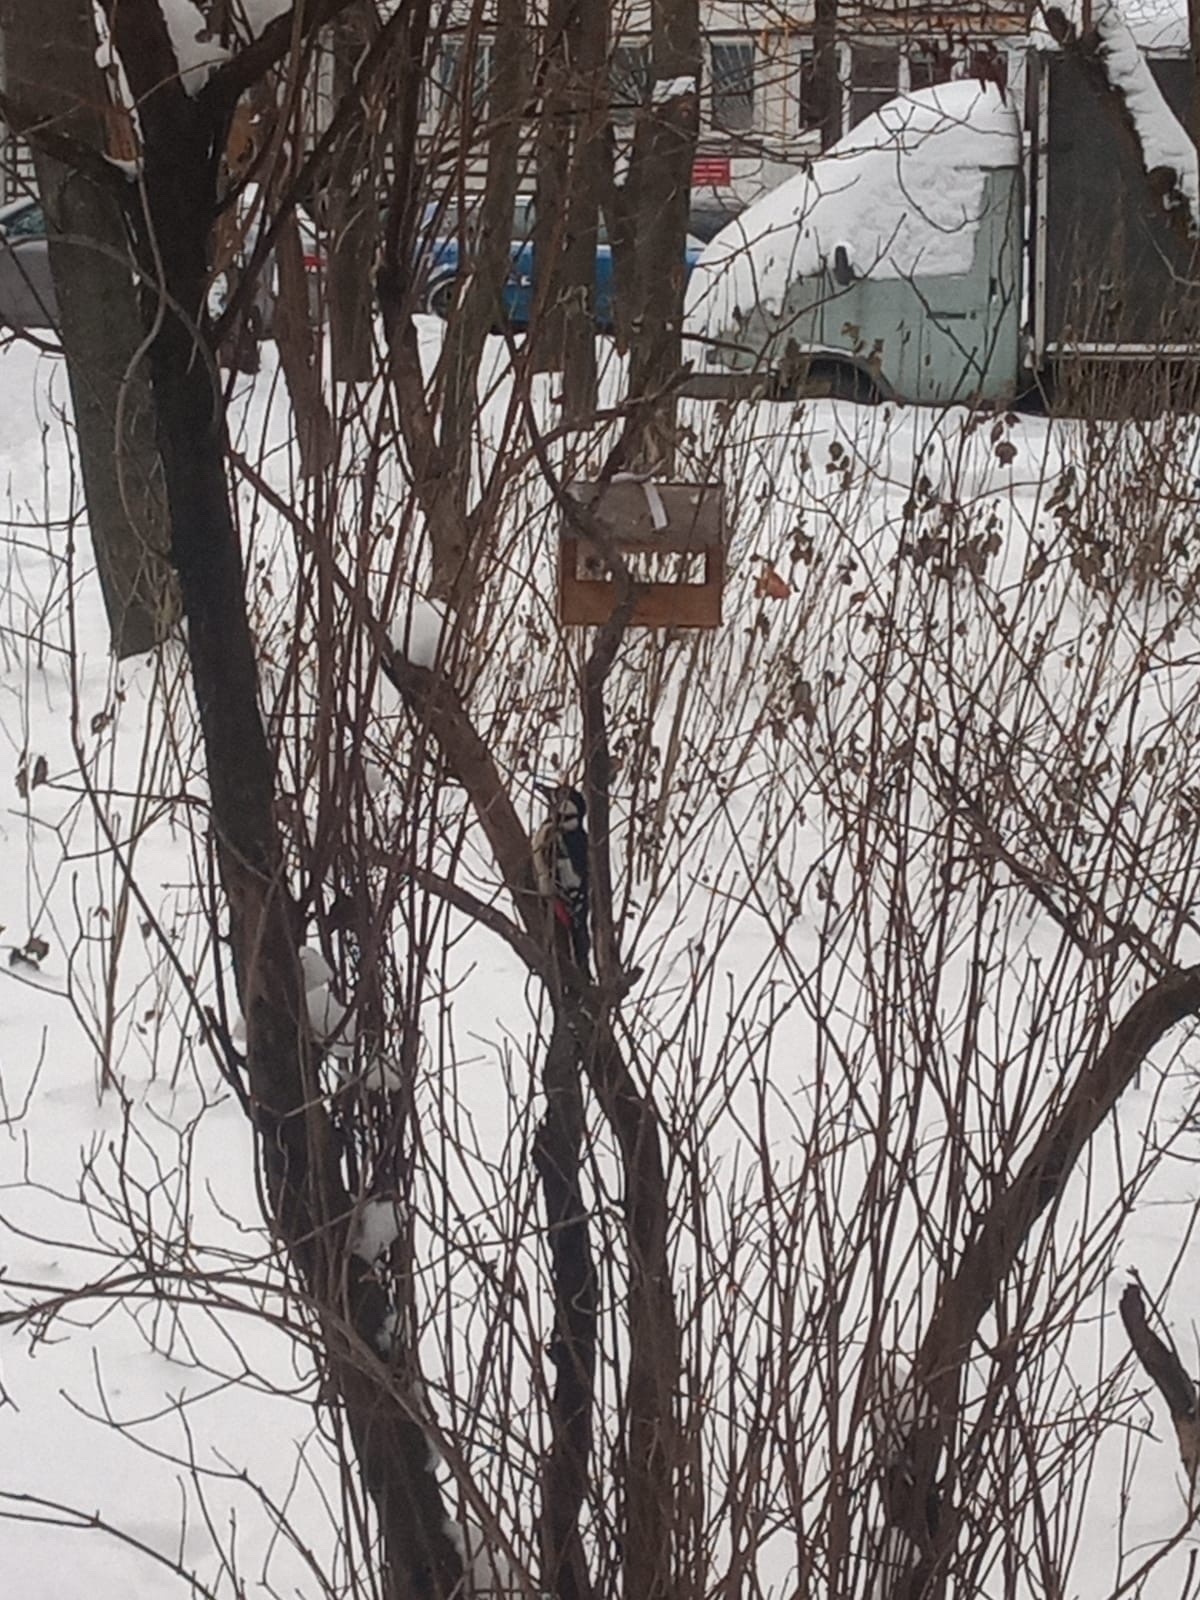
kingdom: Animalia
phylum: Chordata
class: Aves
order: Piciformes
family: Picidae
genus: Dendrocopos
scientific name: Dendrocopos major
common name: Great spotted woodpecker
